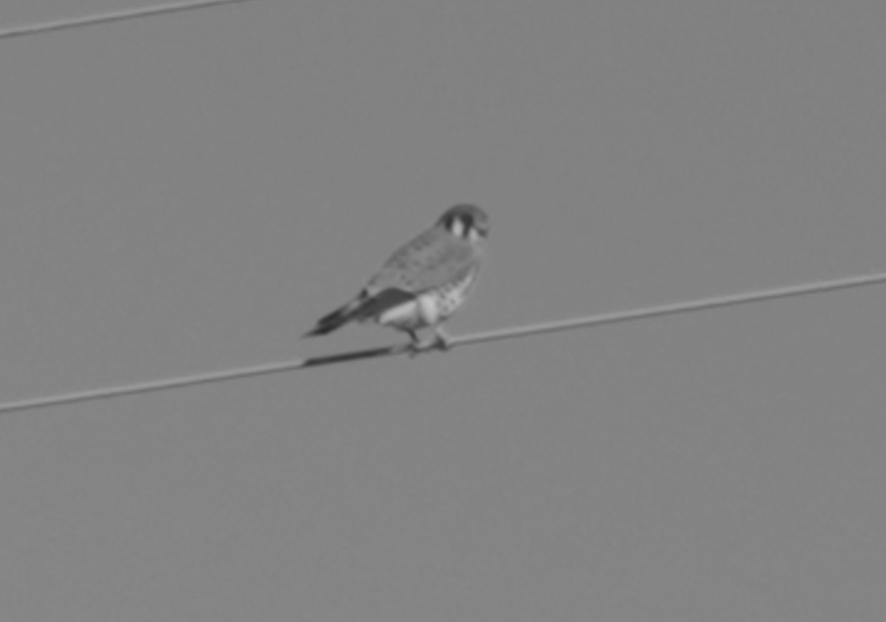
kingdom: Animalia
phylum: Chordata
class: Aves
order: Falconiformes
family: Falconidae
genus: Falco
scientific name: Falco sparverius
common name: American kestrel
